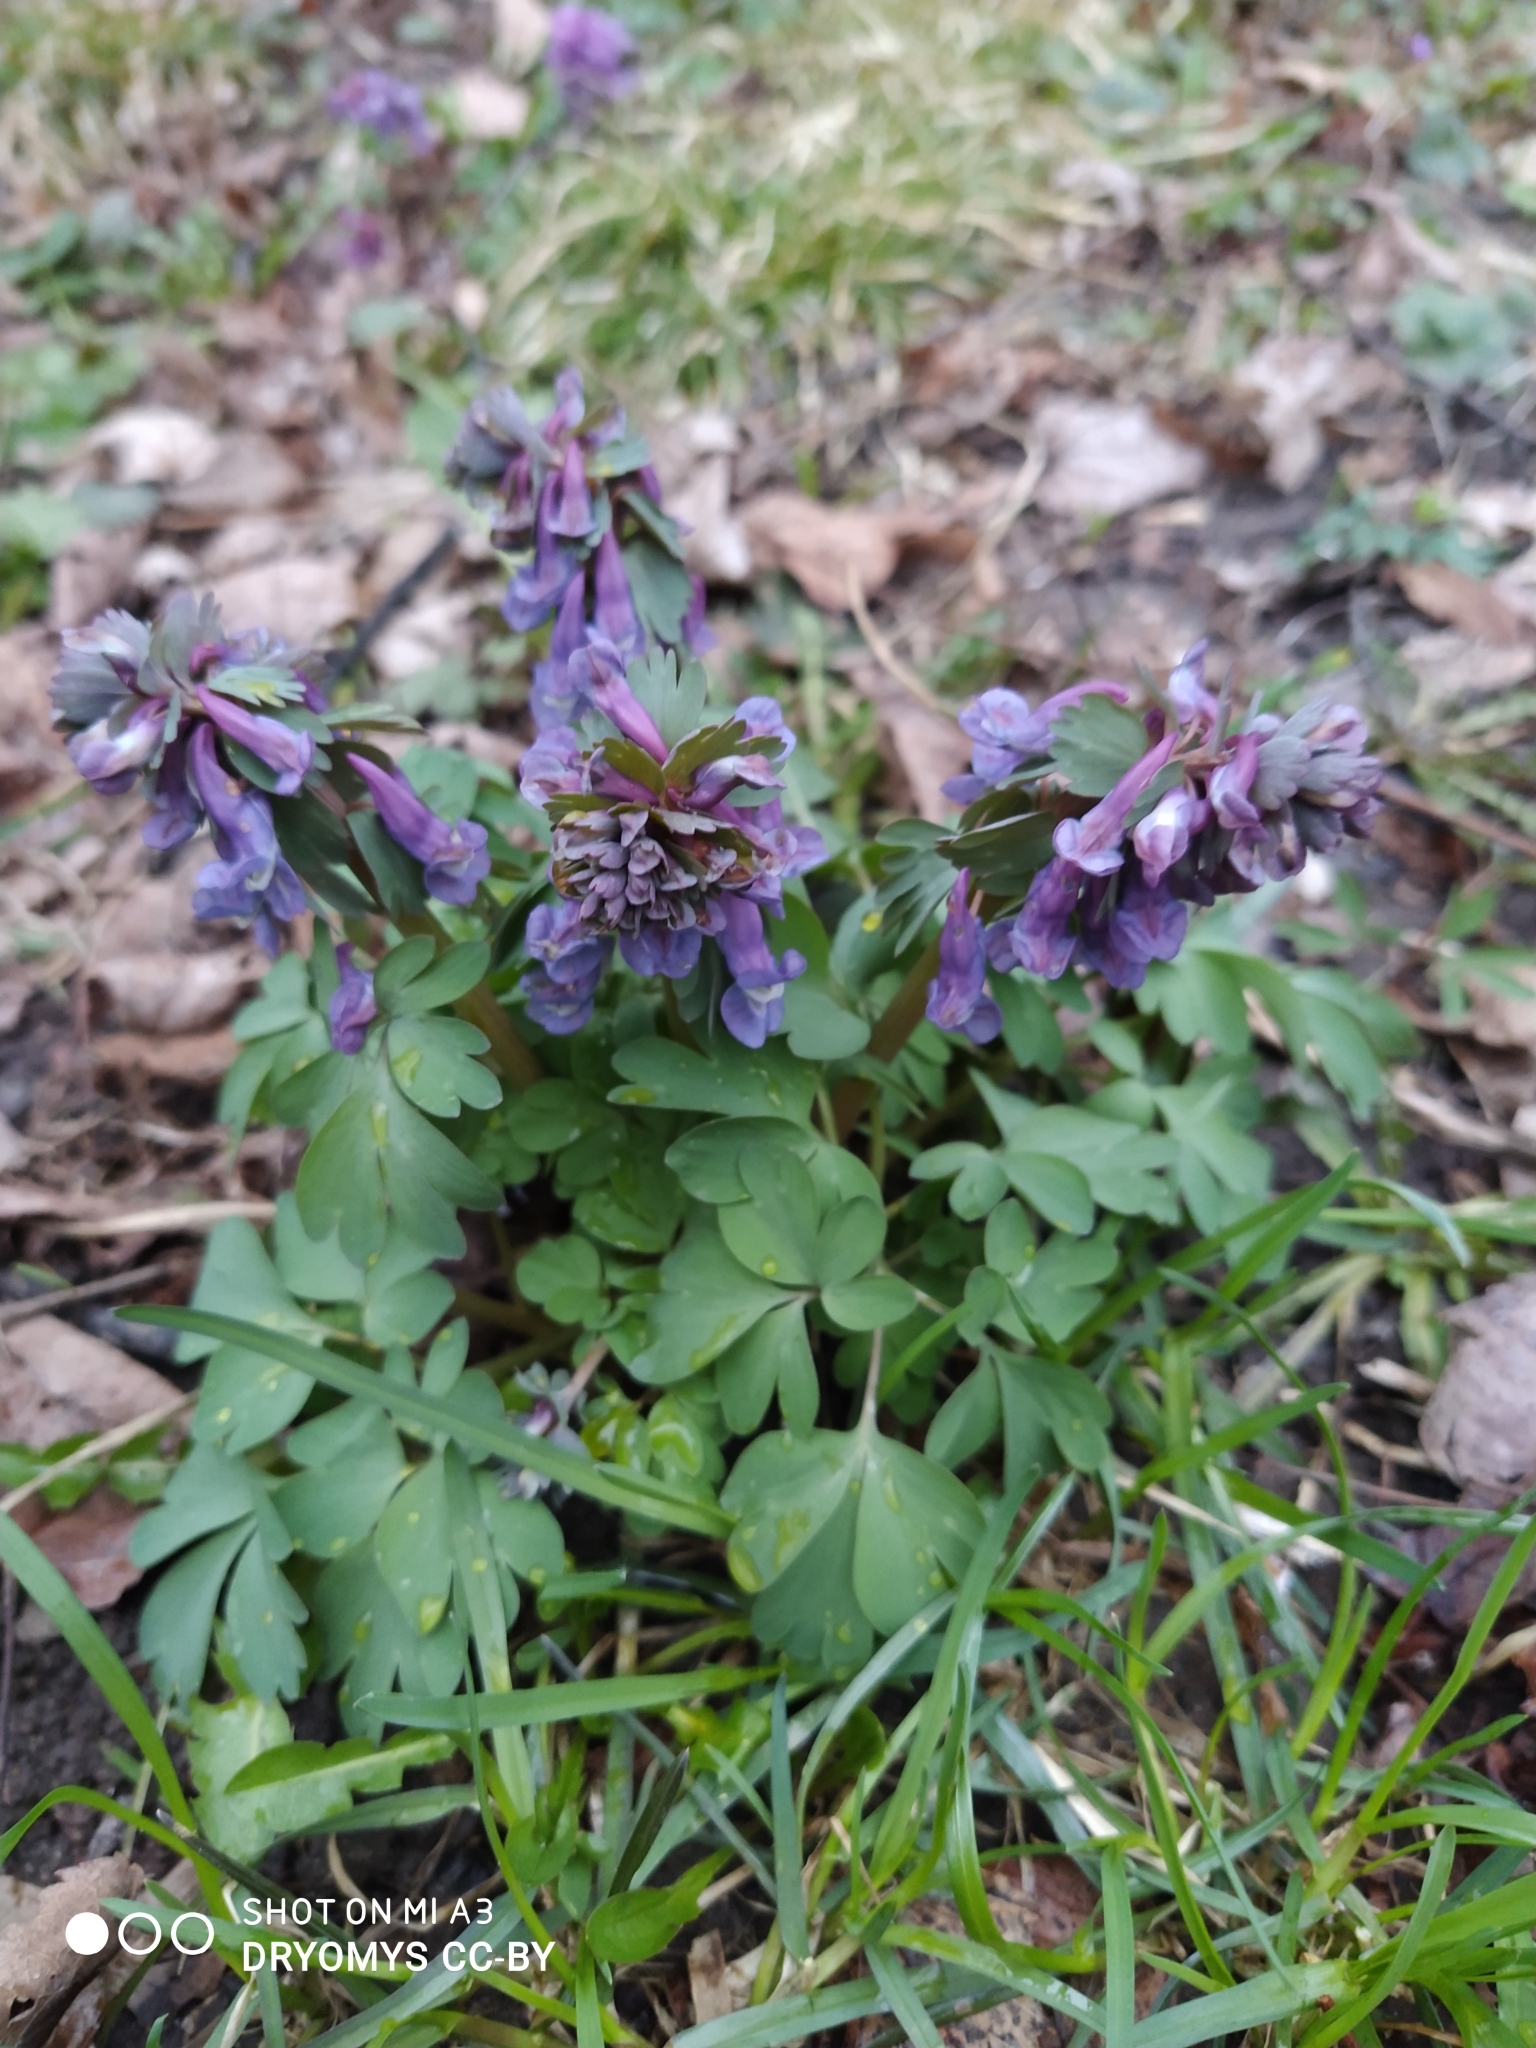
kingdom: Plantae
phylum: Tracheophyta
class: Magnoliopsida
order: Ranunculales
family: Papaveraceae
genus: Corydalis
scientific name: Corydalis solida
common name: Bird-in-a-bush
